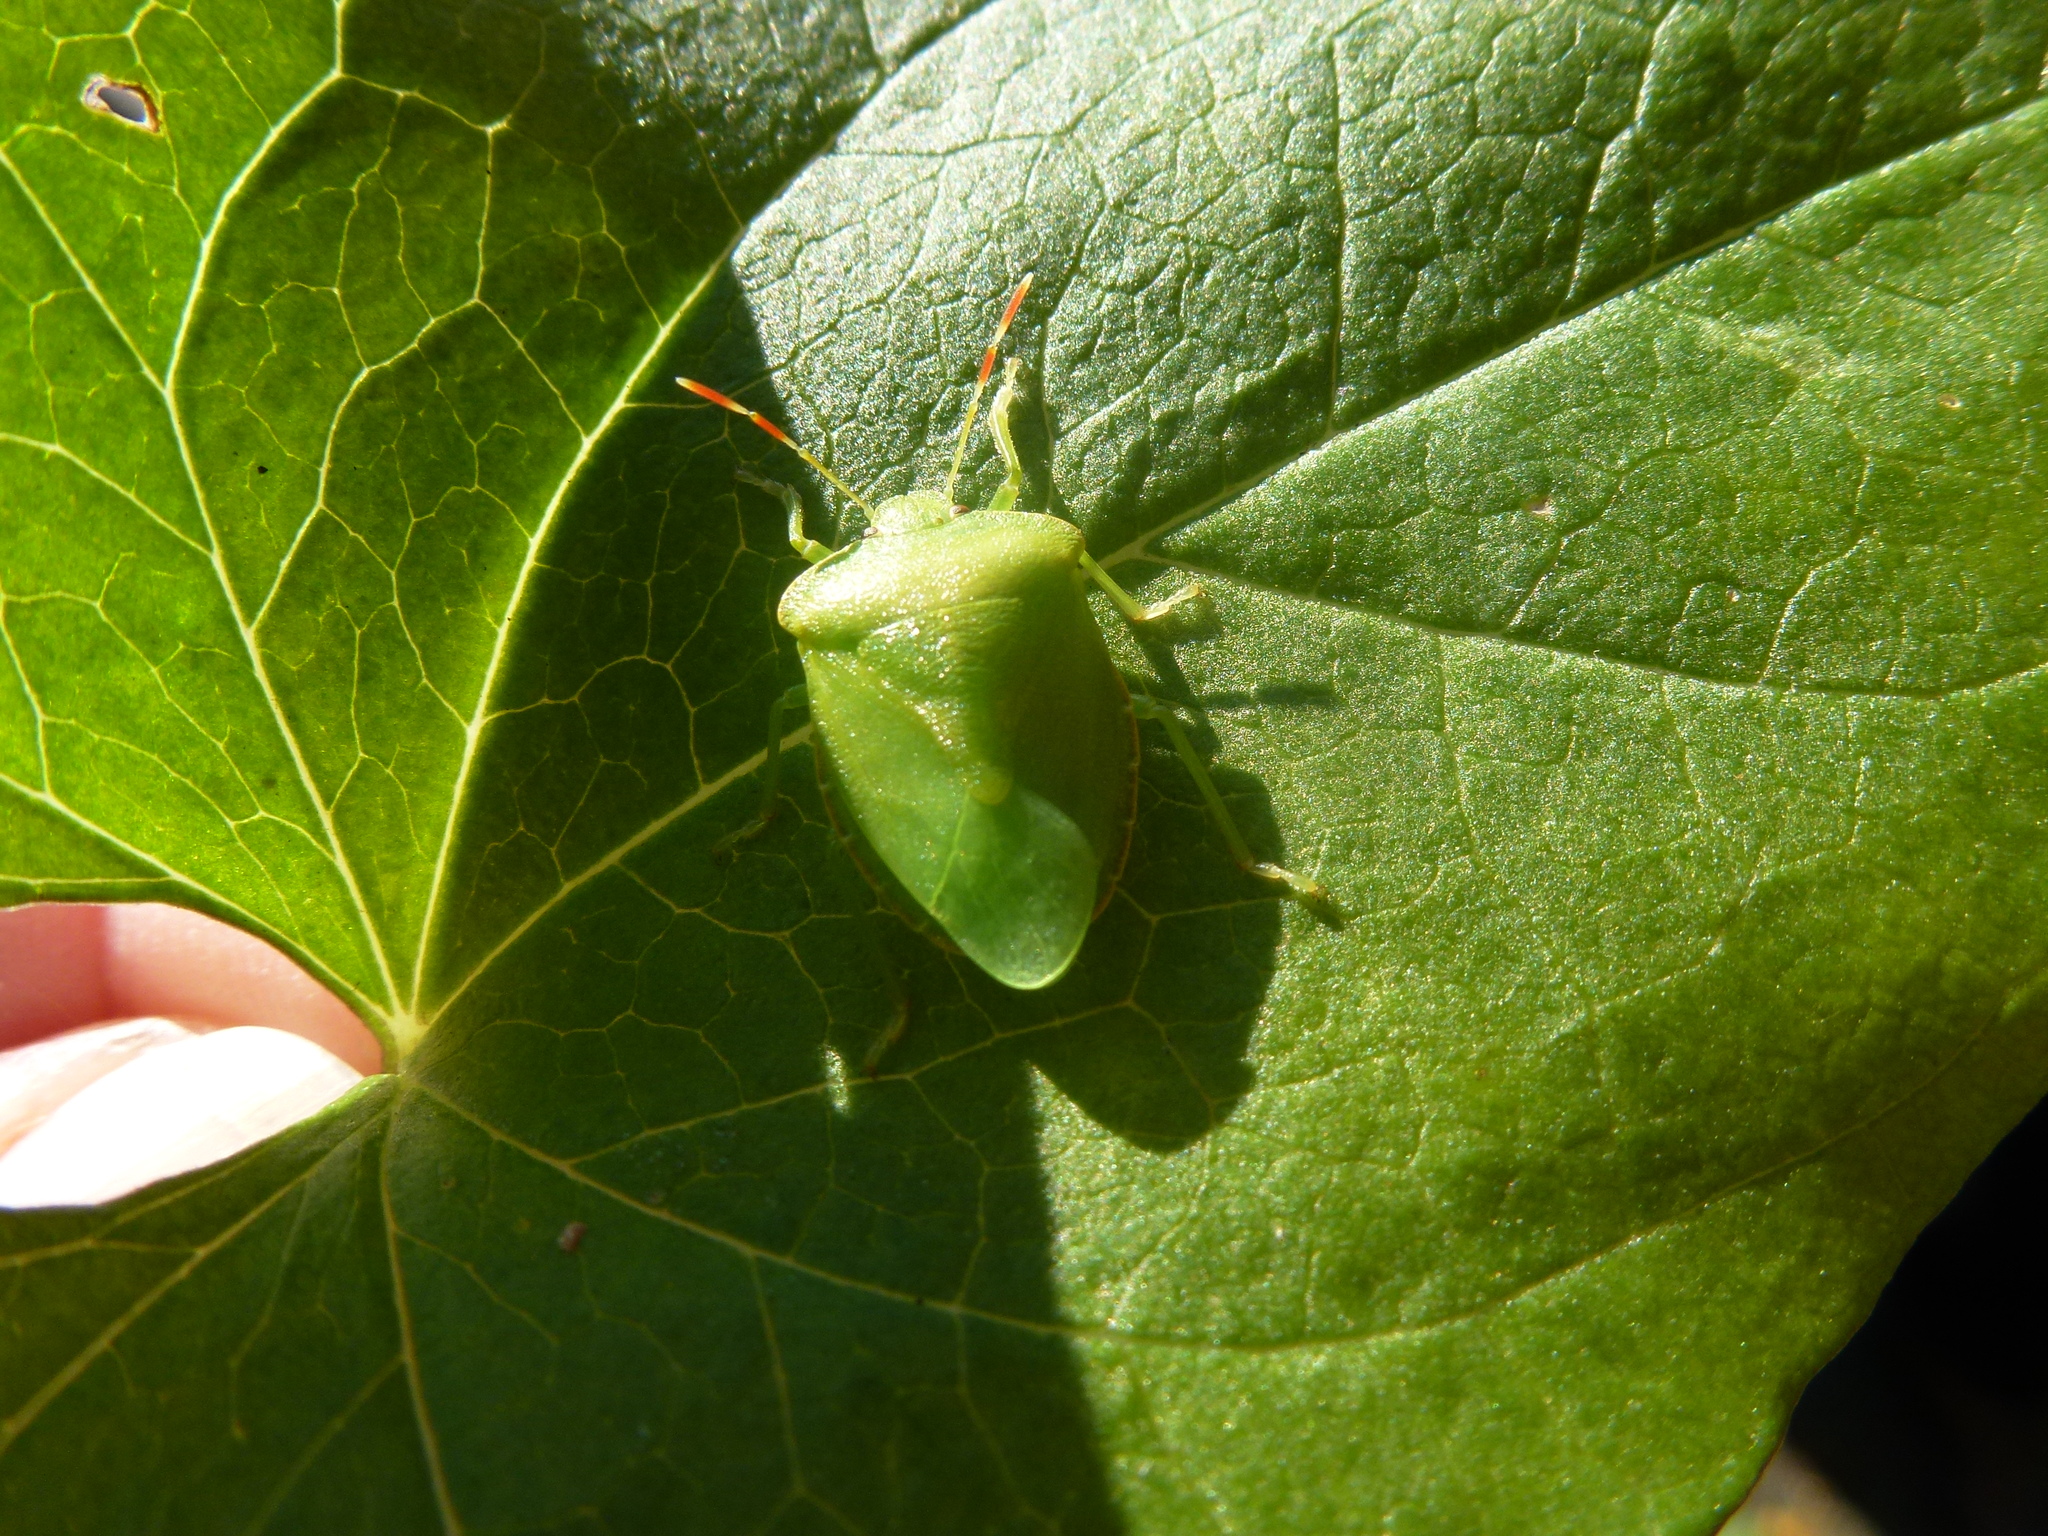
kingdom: Animalia
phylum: Arthropoda
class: Insecta
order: Hemiptera
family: Pentatomidae
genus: Palomena
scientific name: Palomena prasina
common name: Green shieldbug
